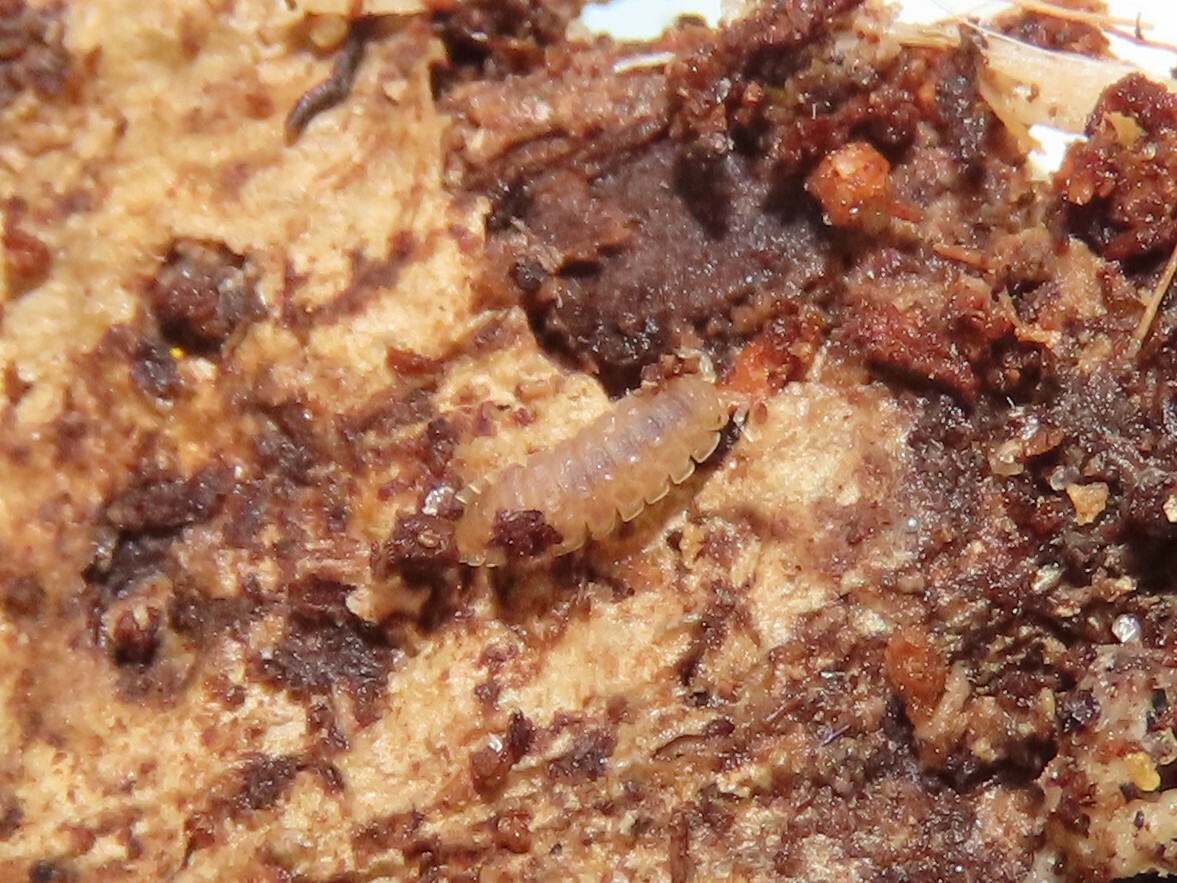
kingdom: Animalia
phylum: Arthropoda
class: Malacostraca
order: Isopoda
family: Trichoniscidae
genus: Haplophthalmus
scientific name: Haplophthalmus danicus
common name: Pillbug
